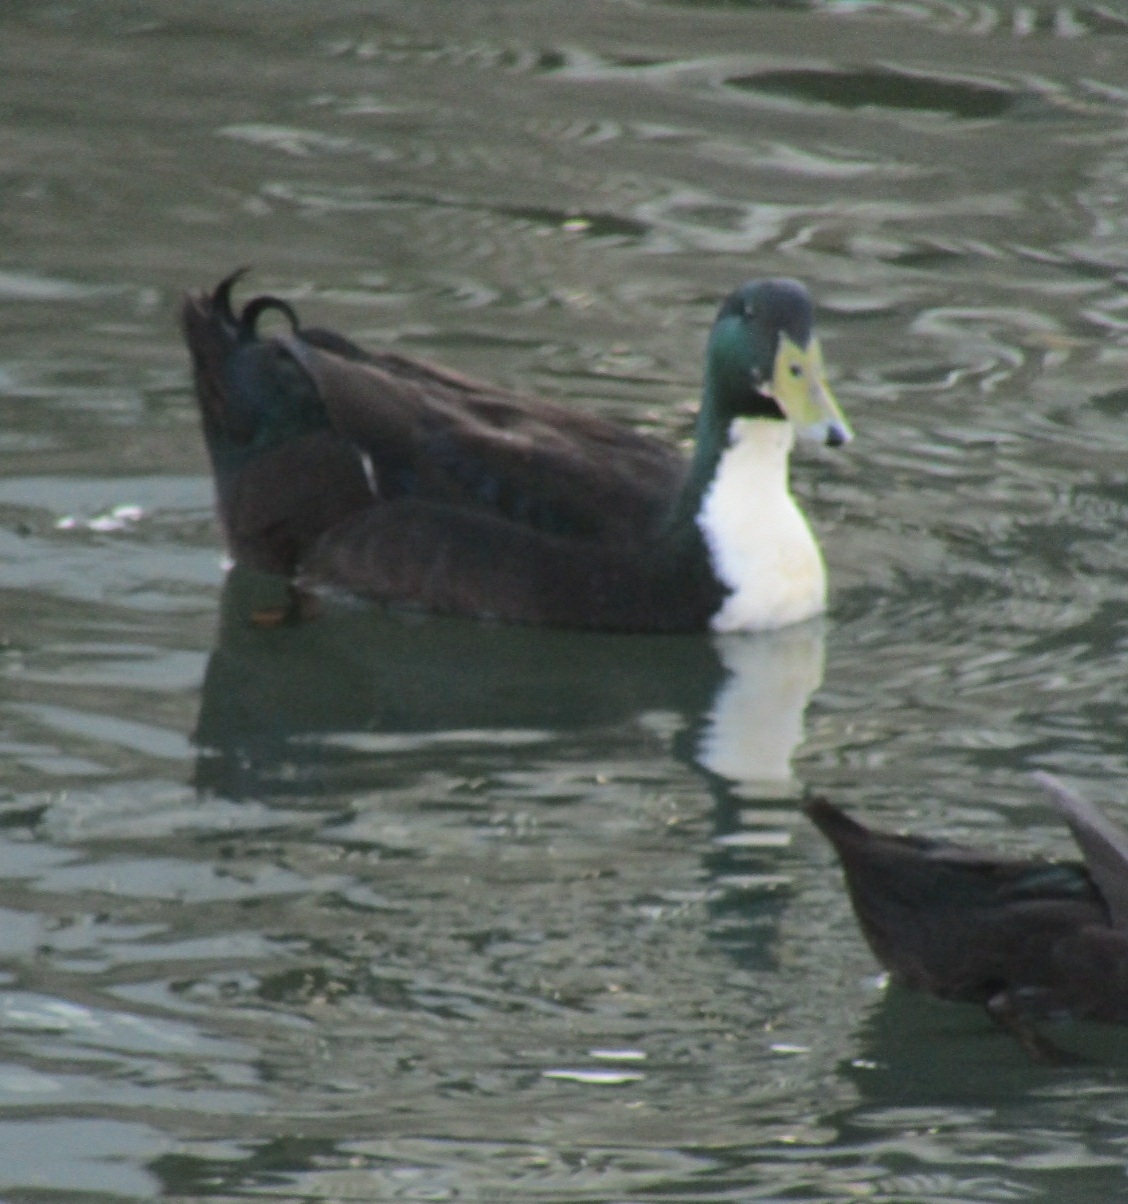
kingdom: Animalia
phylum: Chordata
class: Aves
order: Anseriformes
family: Anatidae
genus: Anas
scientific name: Anas platyrhynchos
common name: Mallard
